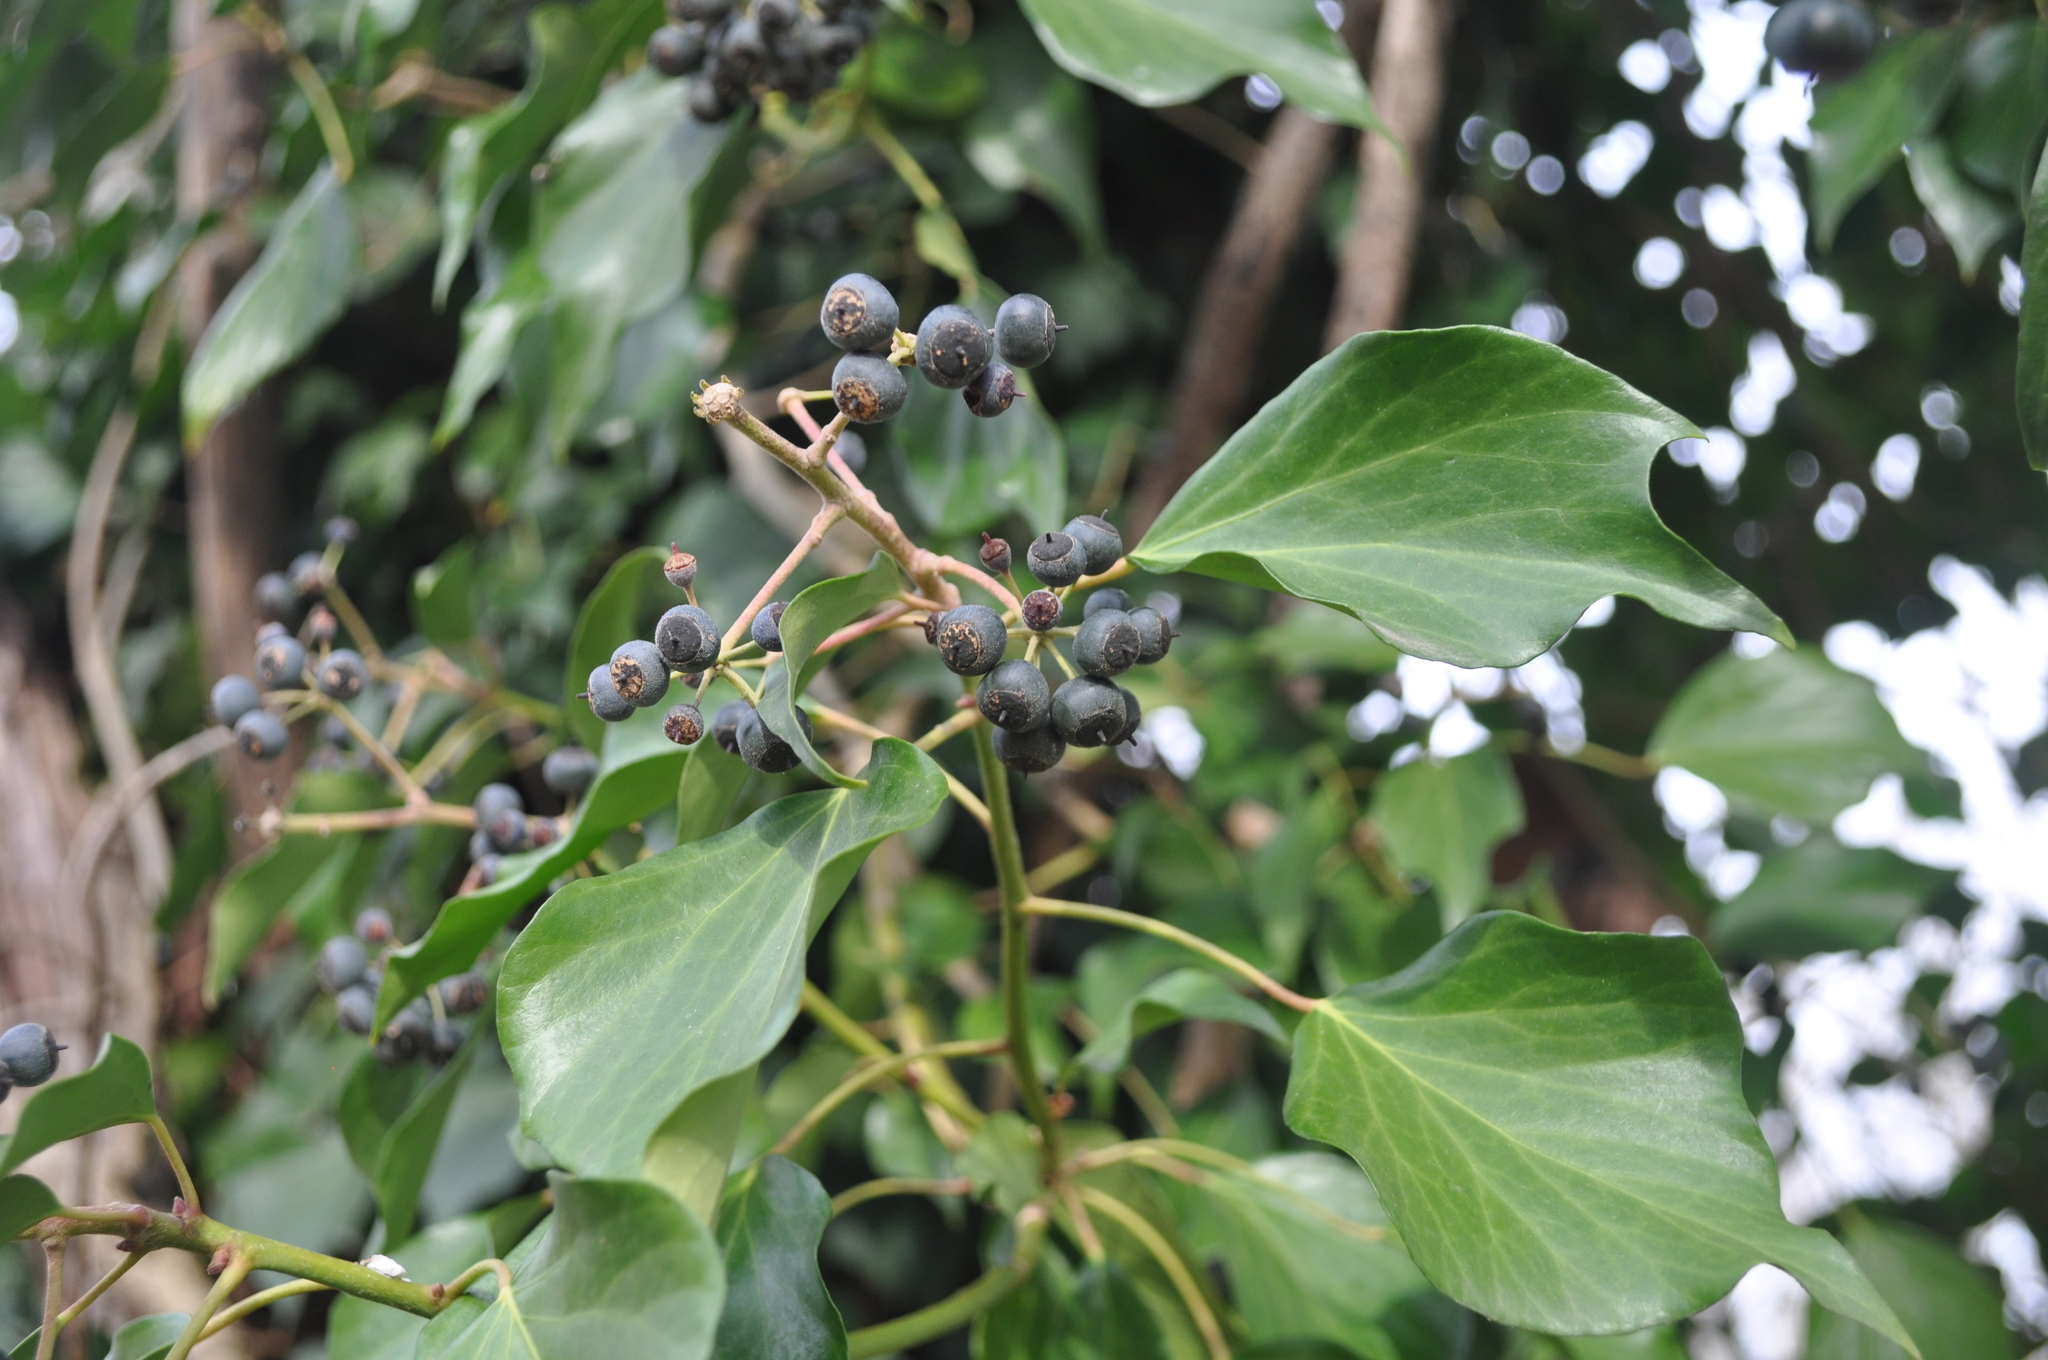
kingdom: Plantae
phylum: Tracheophyta
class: Magnoliopsida
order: Apiales
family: Araliaceae
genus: Hedera
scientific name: Hedera helix
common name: Ivy
